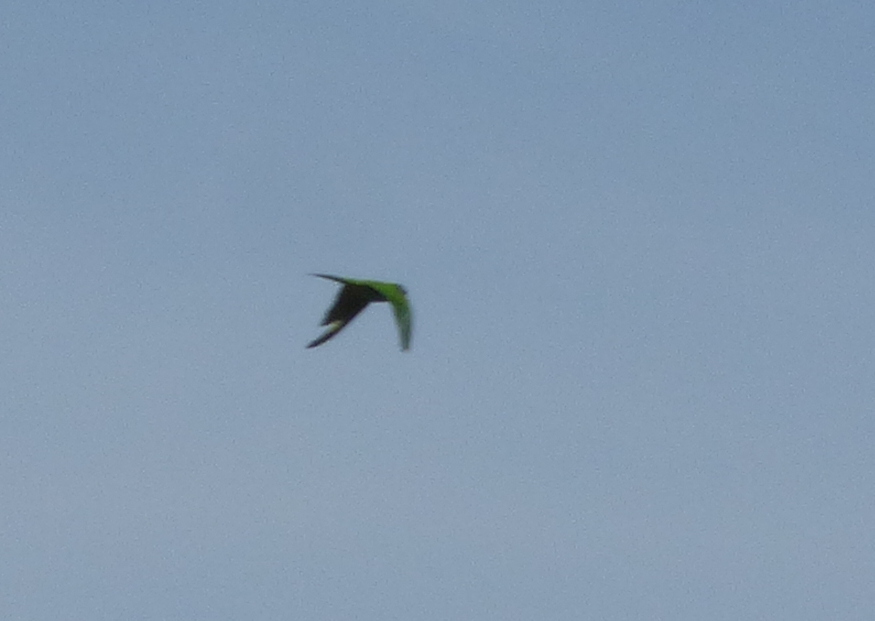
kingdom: Animalia
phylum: Chordata
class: Aves
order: Psittaciformes
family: Psittacidae
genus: Aratinga
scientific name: Aratinga acuticaudata
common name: Blue-crowned parakeet
